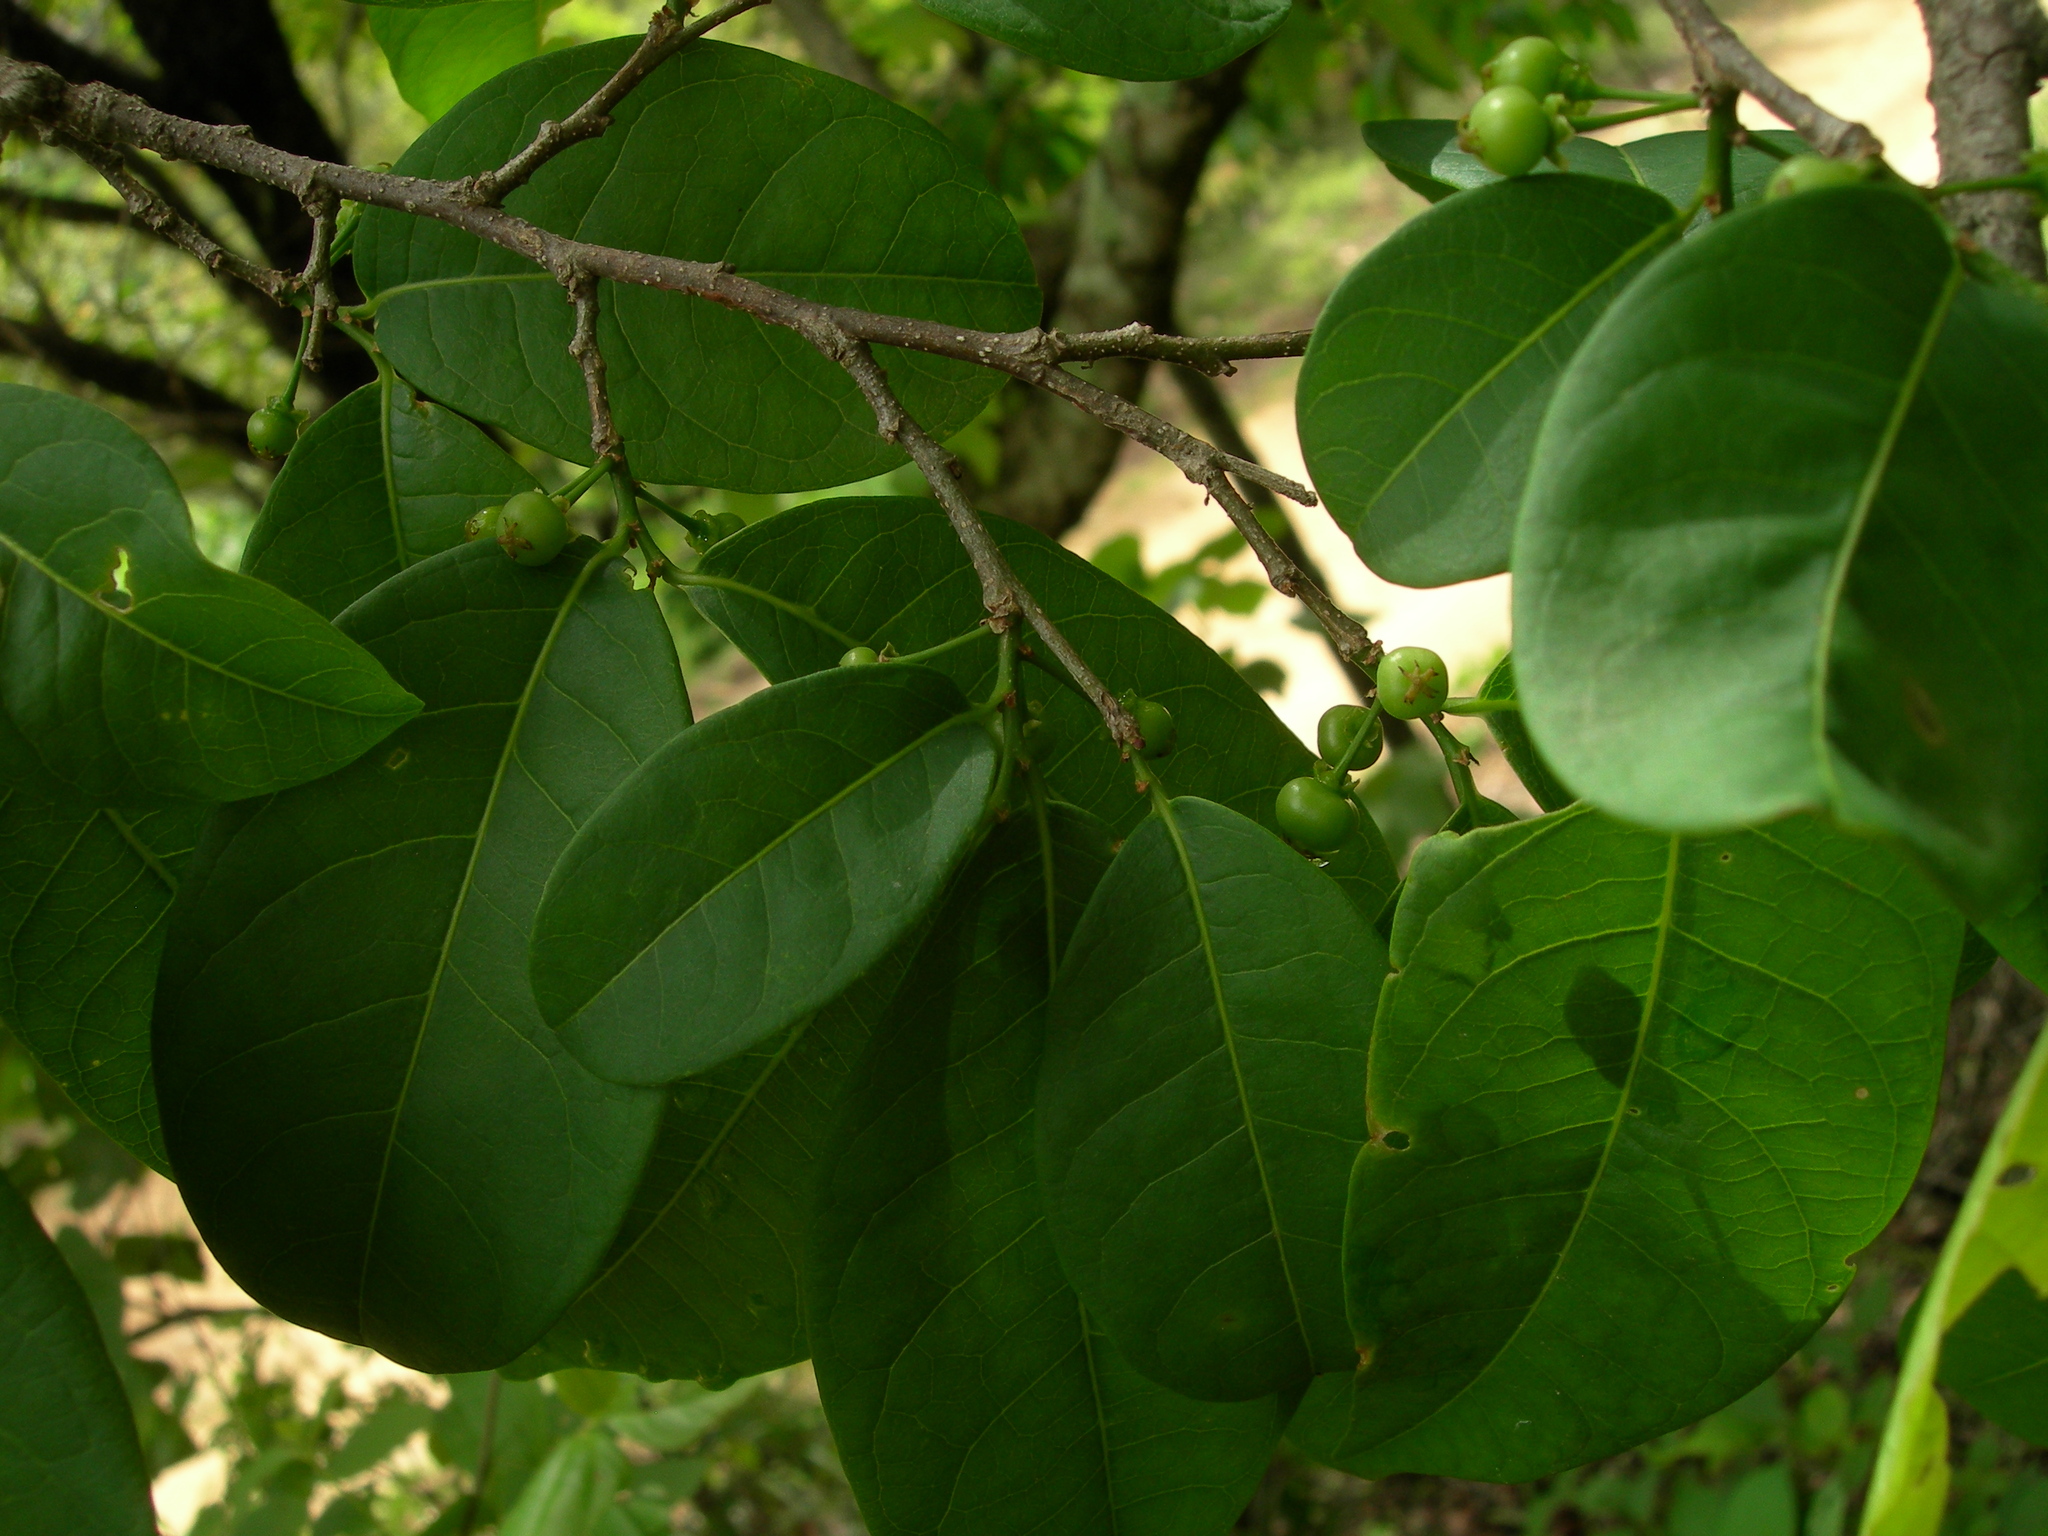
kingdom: Plantae
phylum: Tracheophyta
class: Magnoliopsida
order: Malpighiales
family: Phyllanthaceae
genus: Margaritaria
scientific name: Margaritaria nobilis
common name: Goose berry
